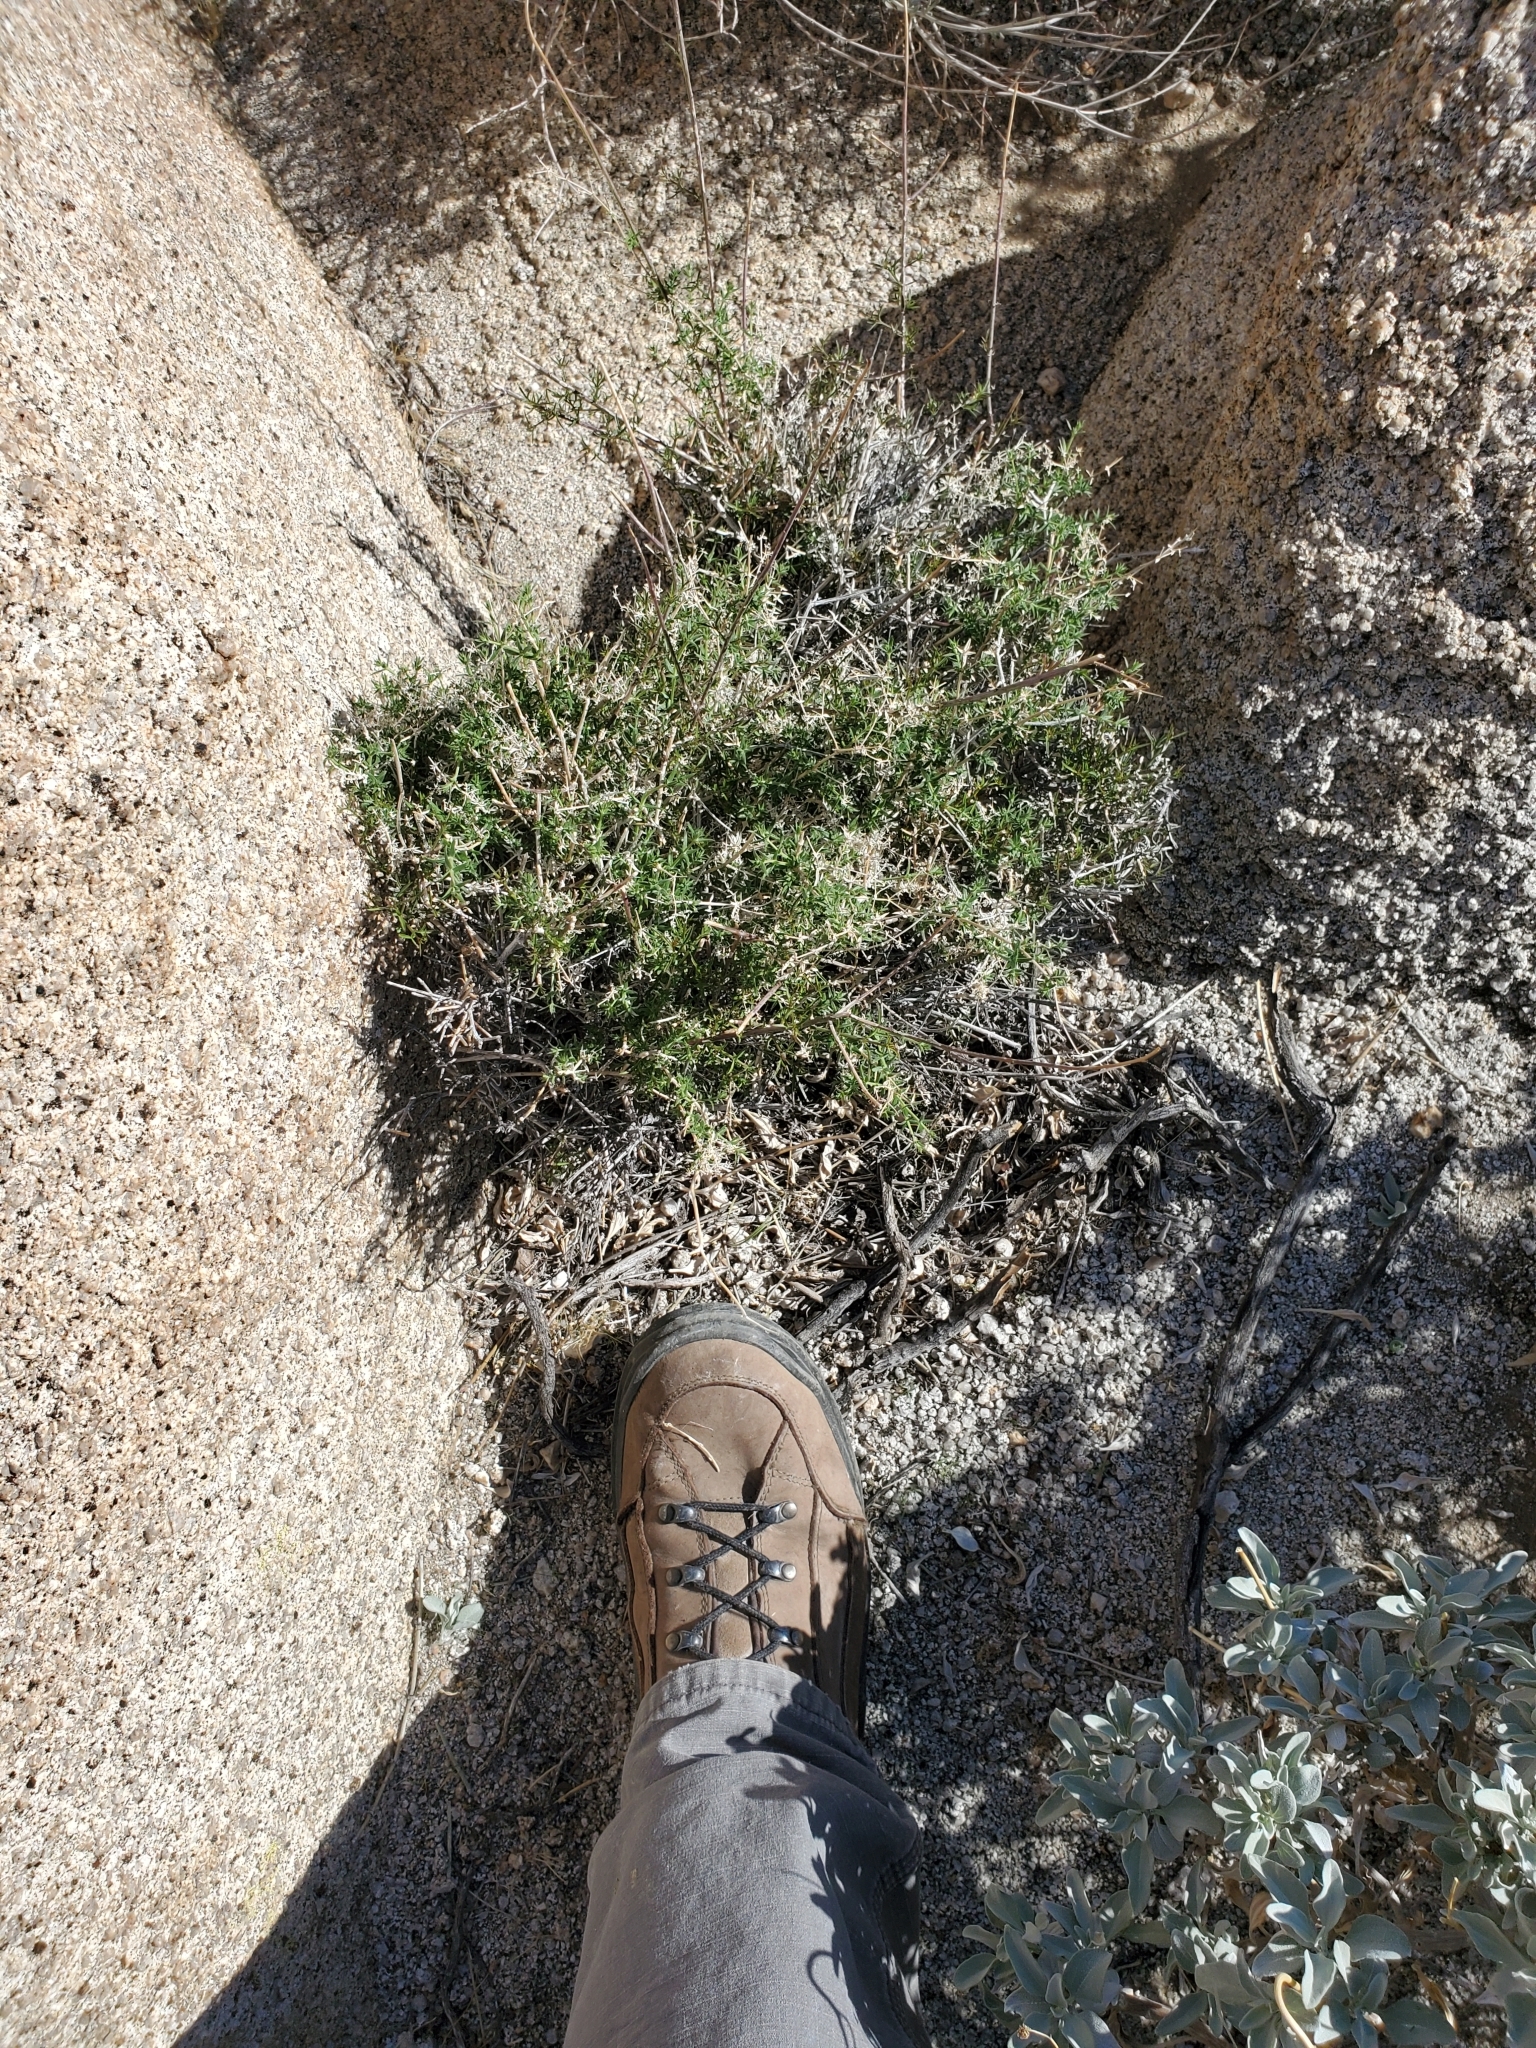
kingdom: Plantae
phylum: Tracheophyta
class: Magnoliopsida
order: Gentianales
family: Rubiaceae
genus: Galium
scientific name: Galium stellatum
